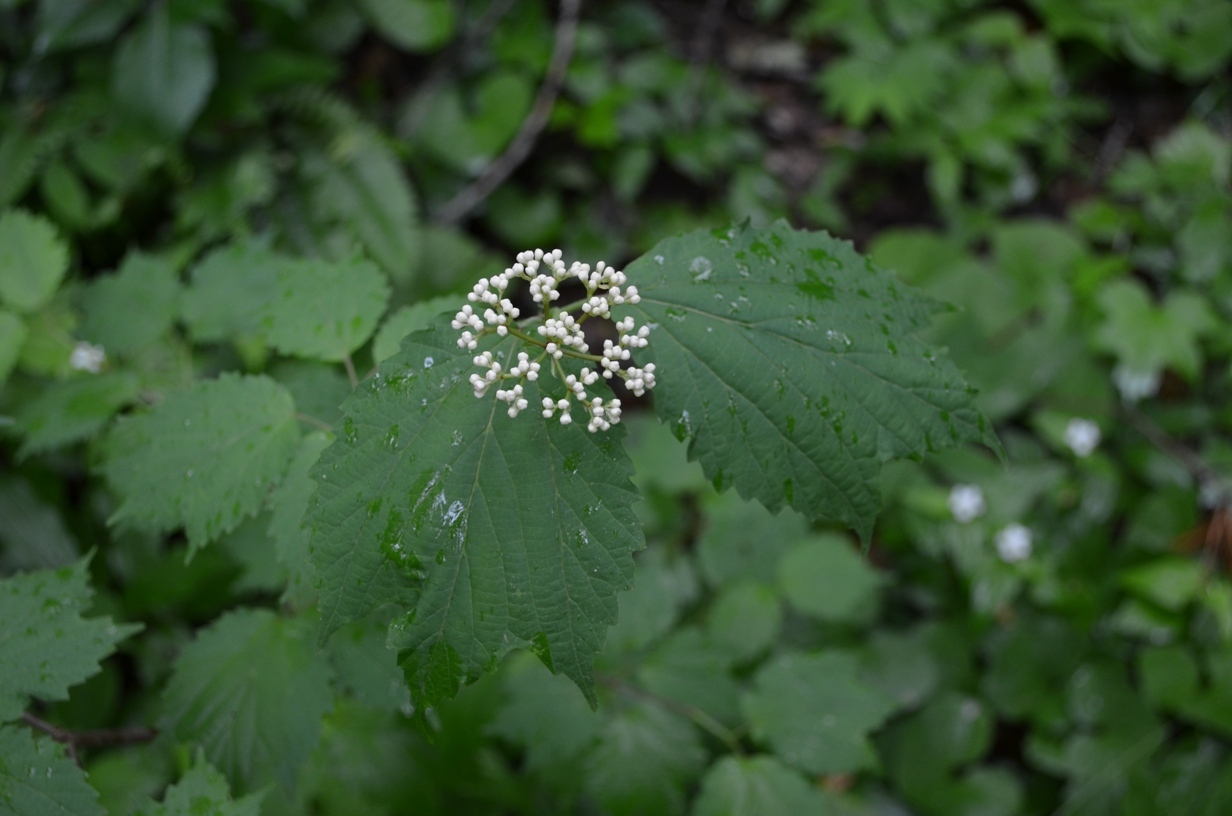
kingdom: Plantae
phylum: Tracheophyta
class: Magnoliopsida
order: Dipsacales
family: Viburnaceae
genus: Viburnum
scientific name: Viburnum acerifolium
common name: Dockmackie
